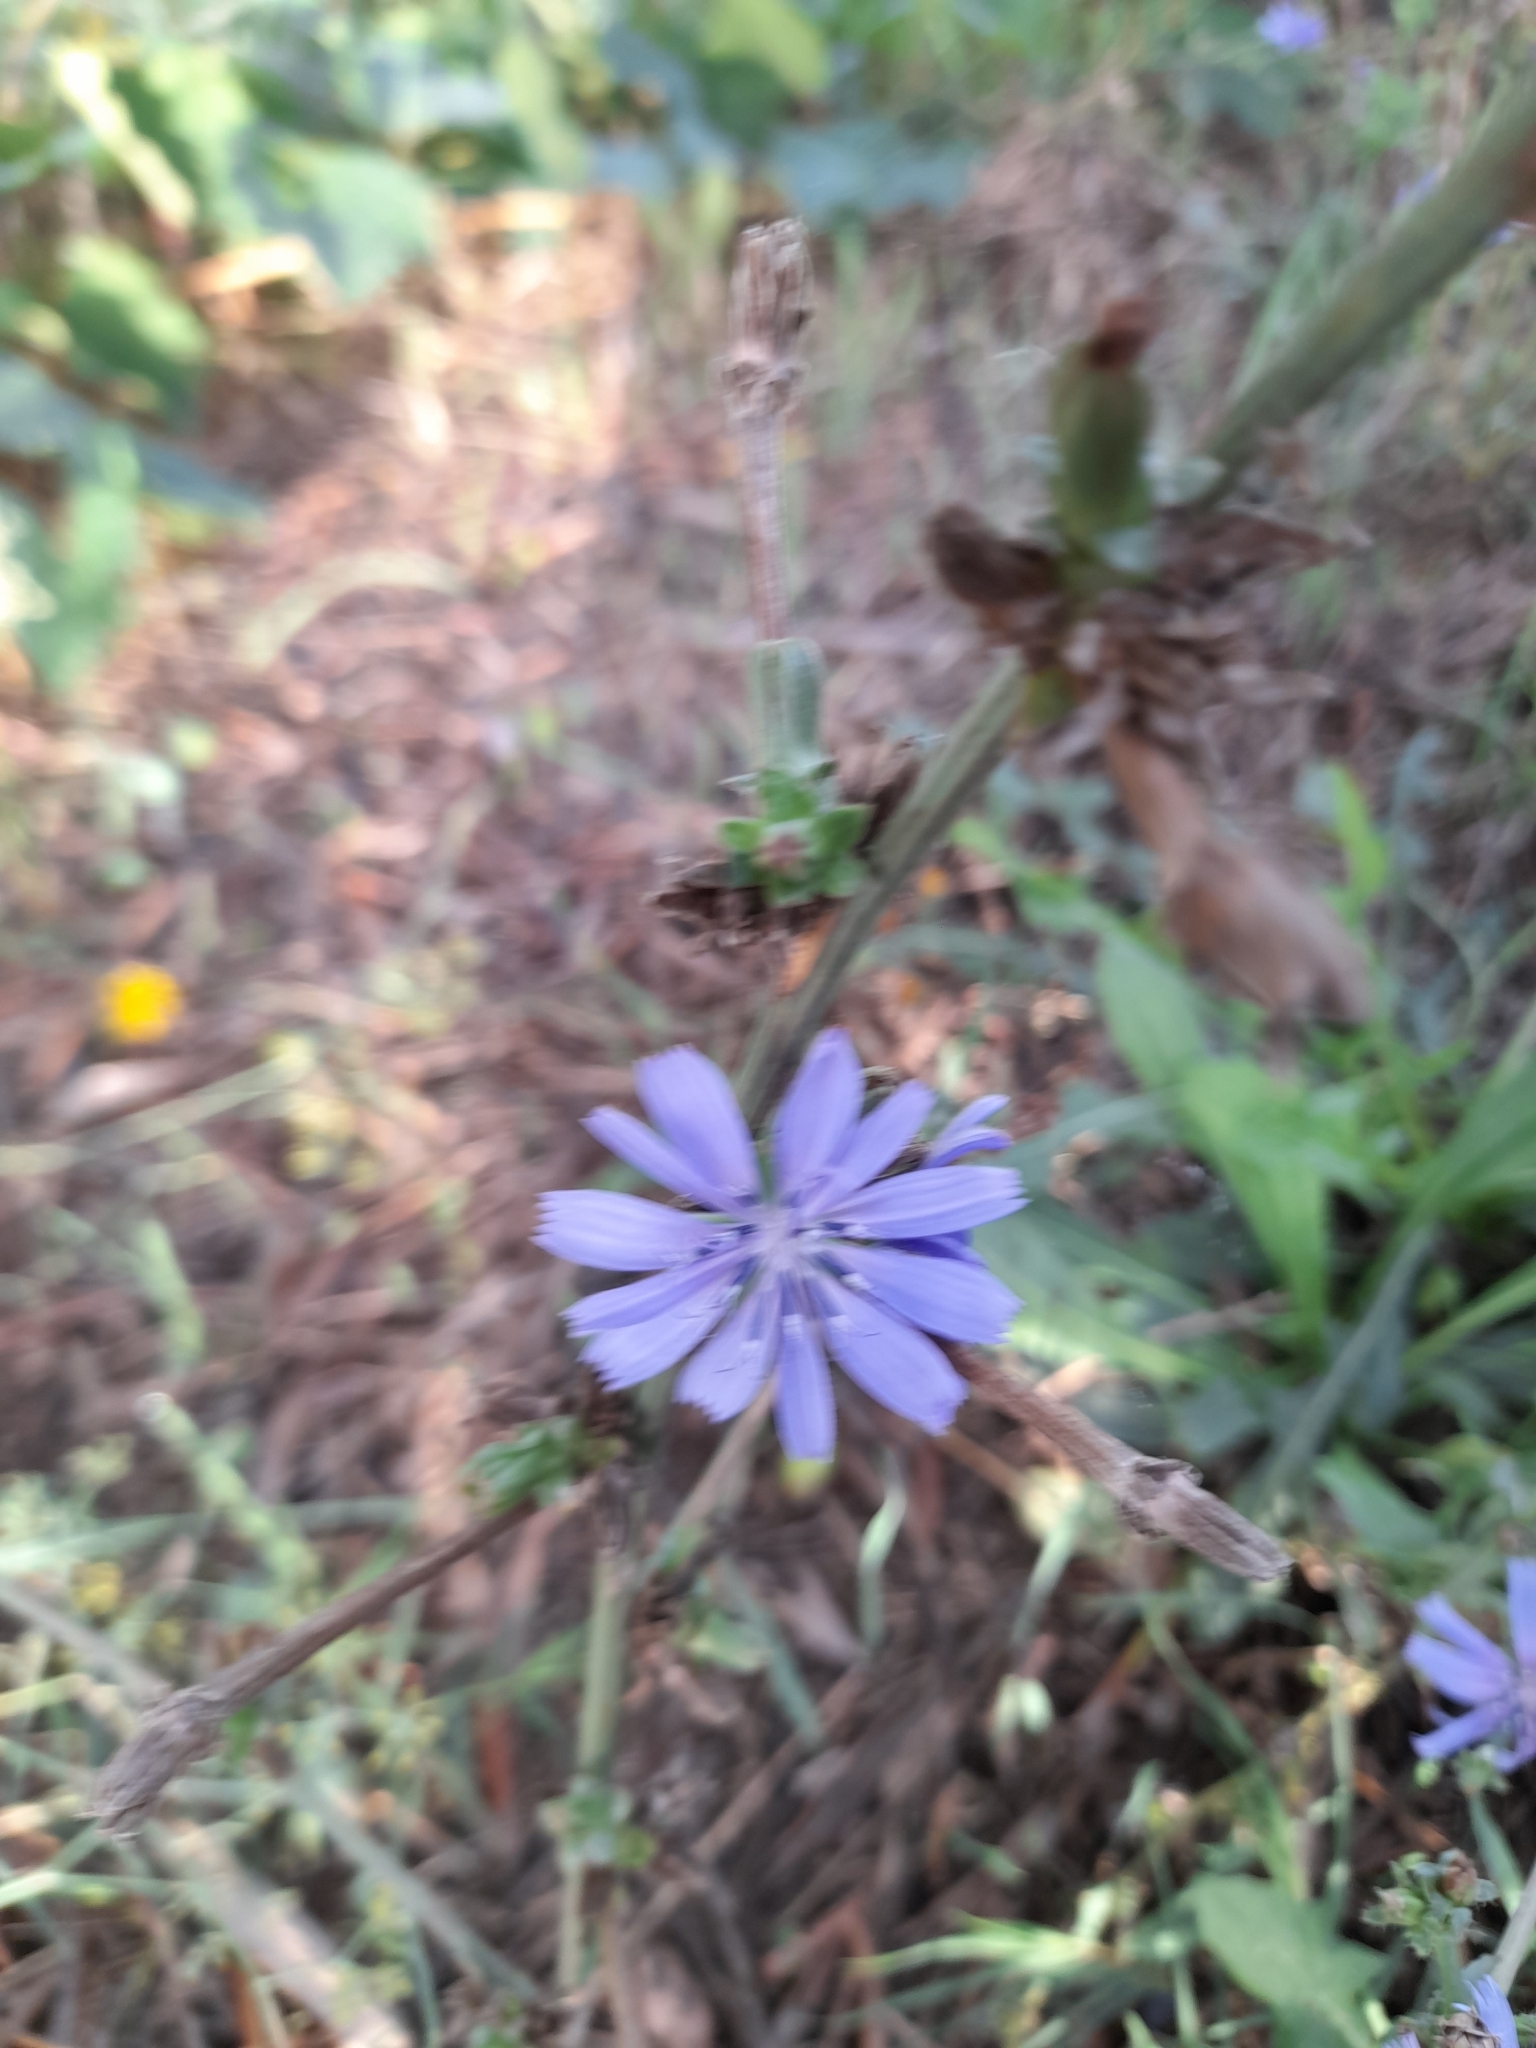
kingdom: Plantae
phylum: Tracheophyta
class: Magnoliopsida
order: Asterales
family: Asteraceae
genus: Cichorium
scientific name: Cichorium intybus
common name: Chicory
